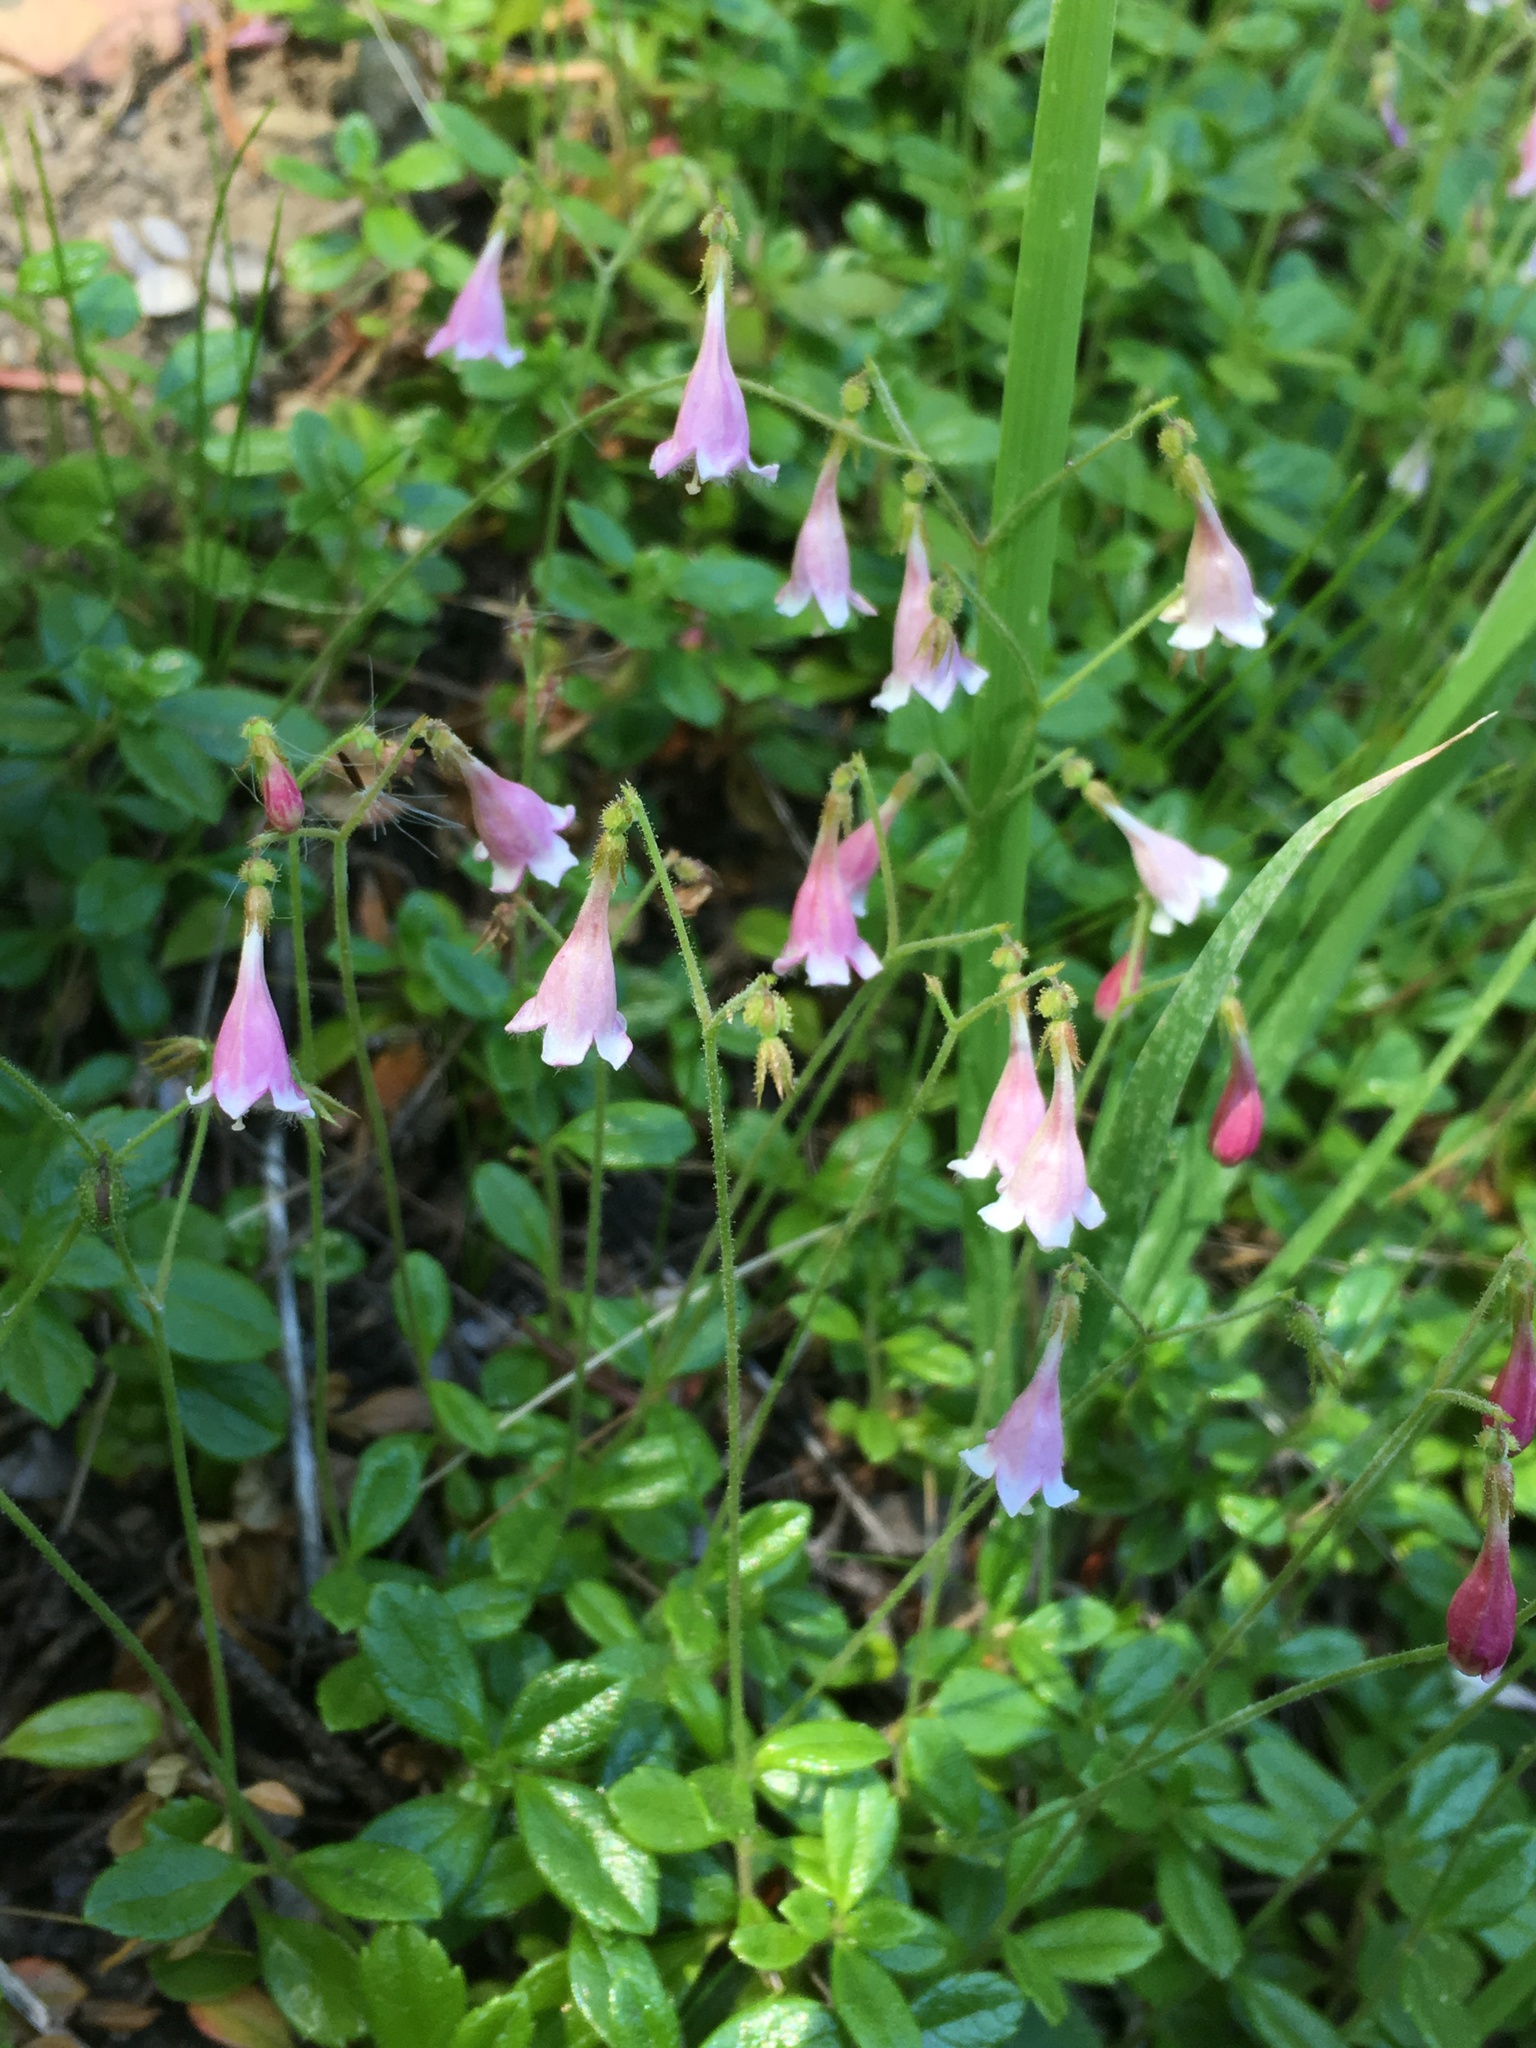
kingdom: Plantae
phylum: Tracheophyta
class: Magnoliopsida
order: Dipsacales
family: Caprifoliaceae
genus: Linnaea
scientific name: Linnaea borealis
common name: Twinflower
